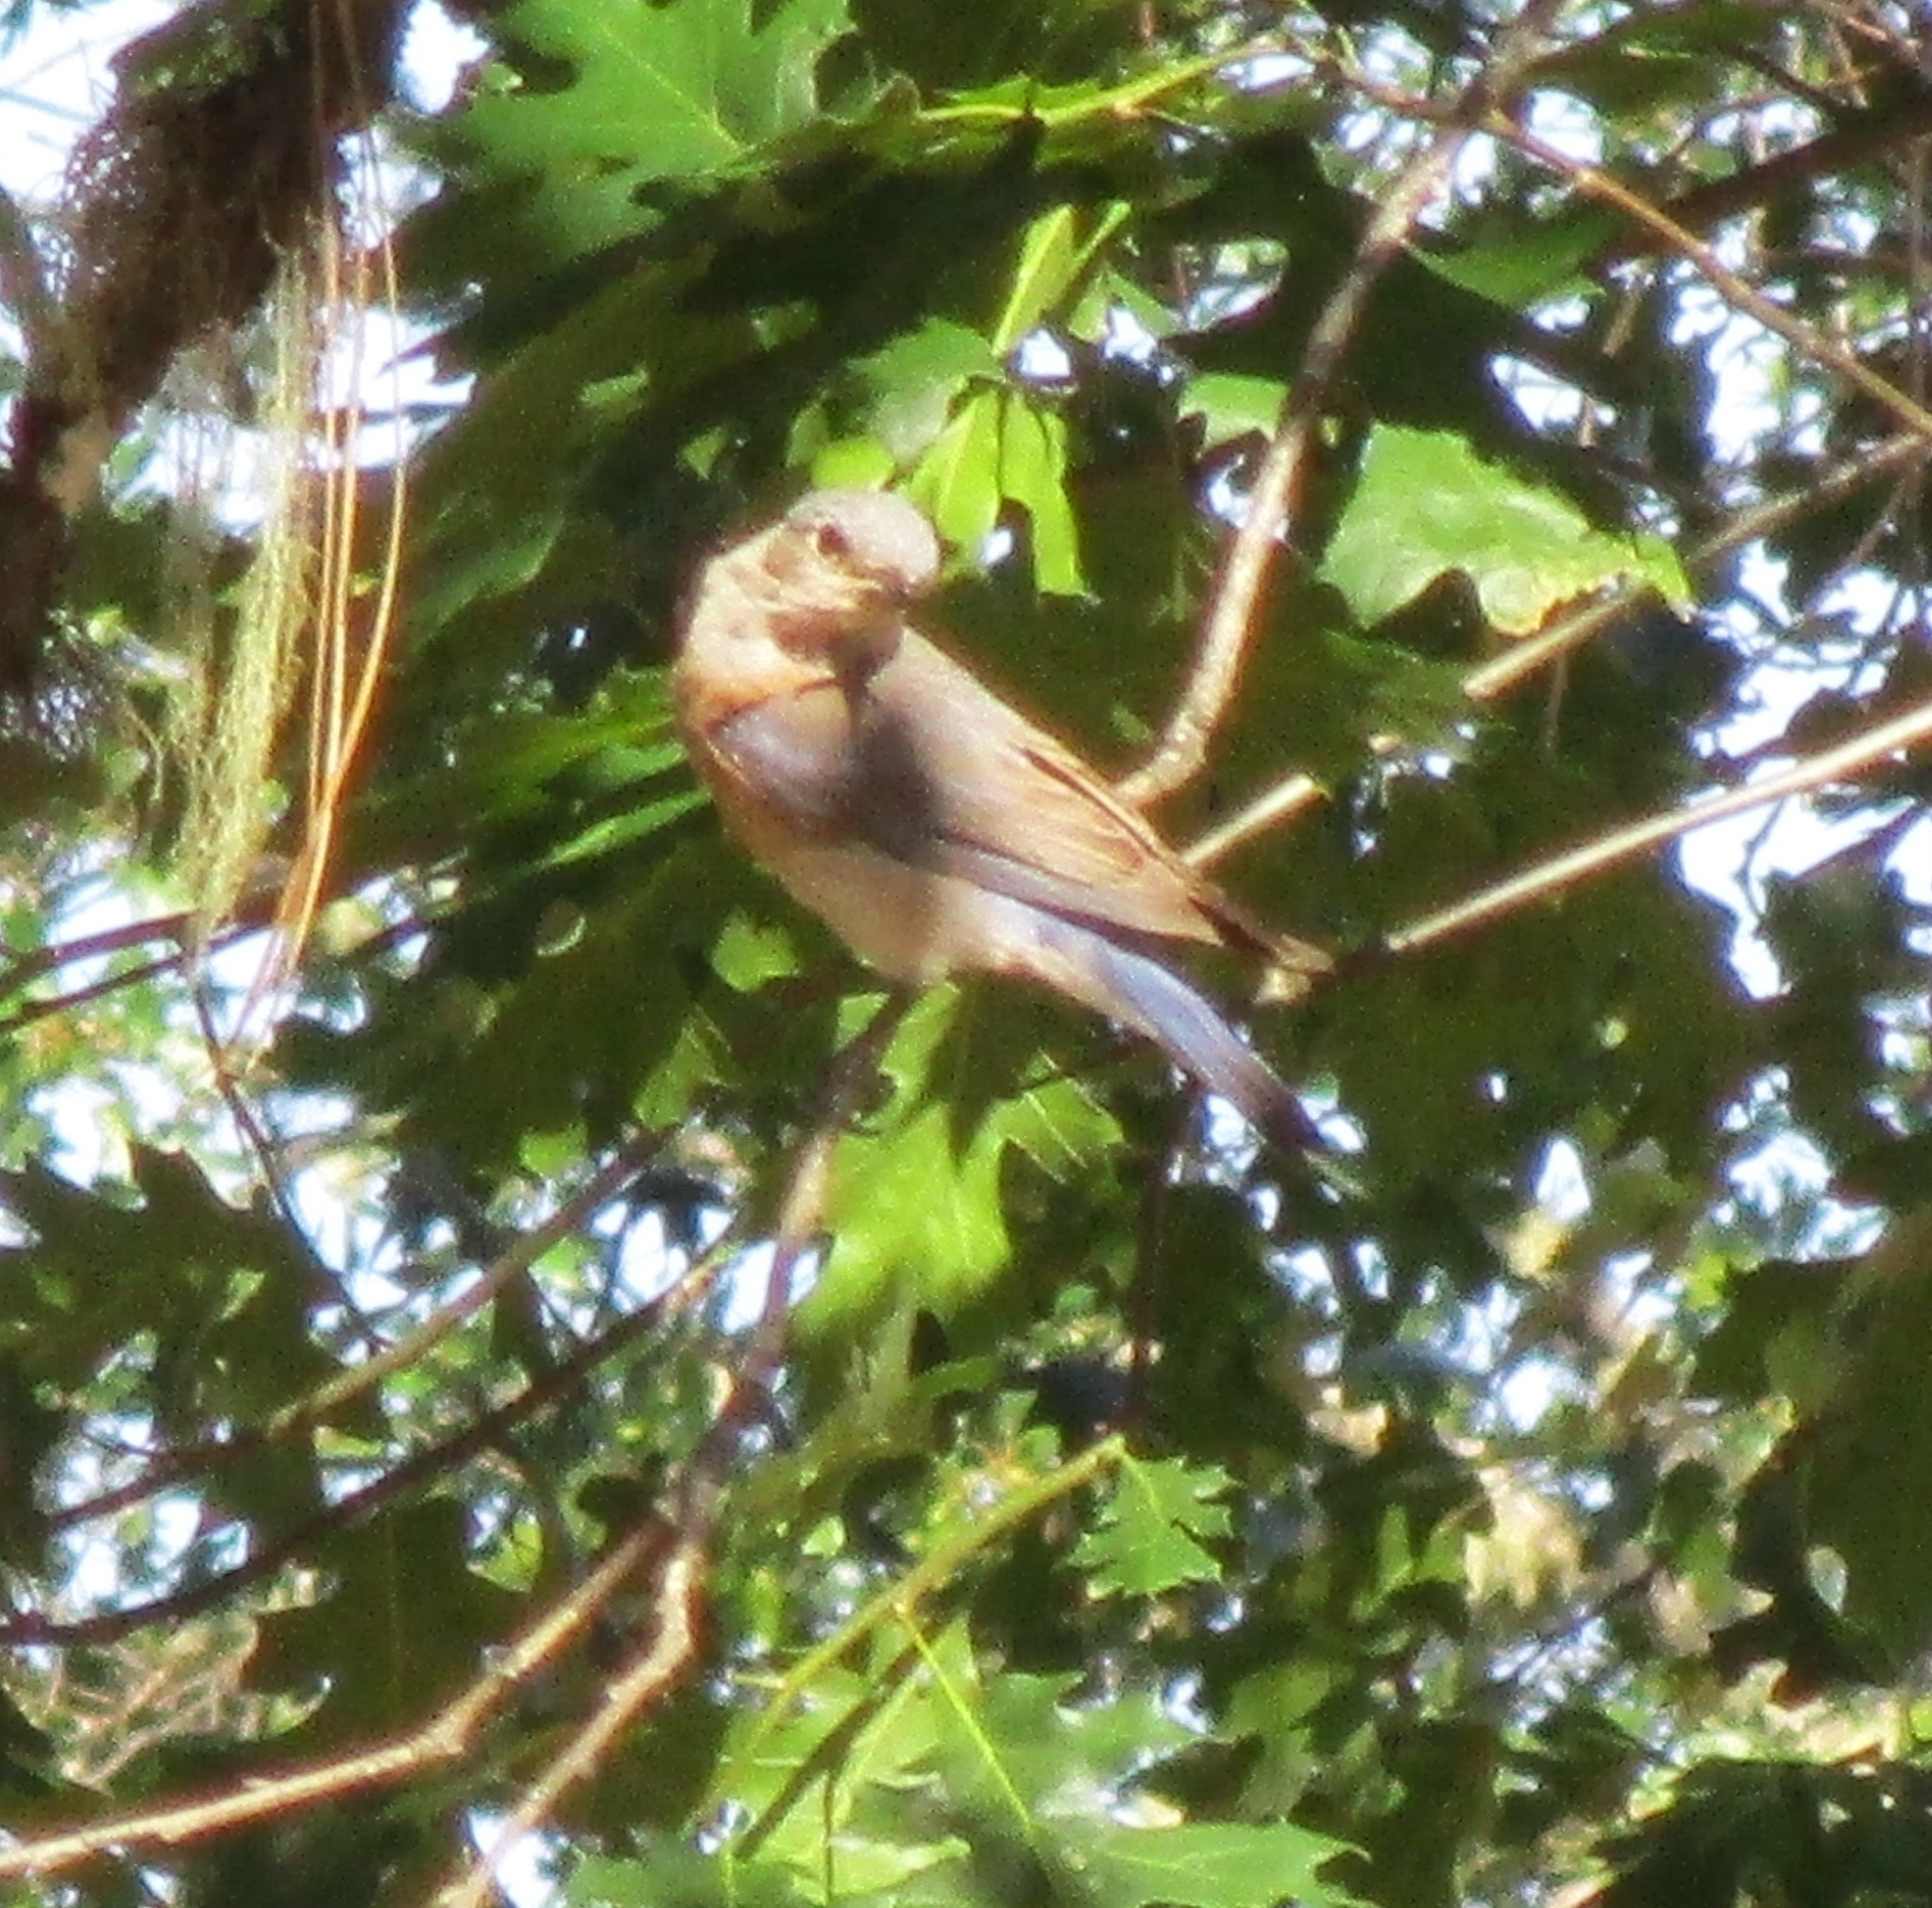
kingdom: Animalia
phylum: Chordata
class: Aves
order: Passeriformes
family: Turdidae
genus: Sialia
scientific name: Sialia mexicana
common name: Western bluebird
